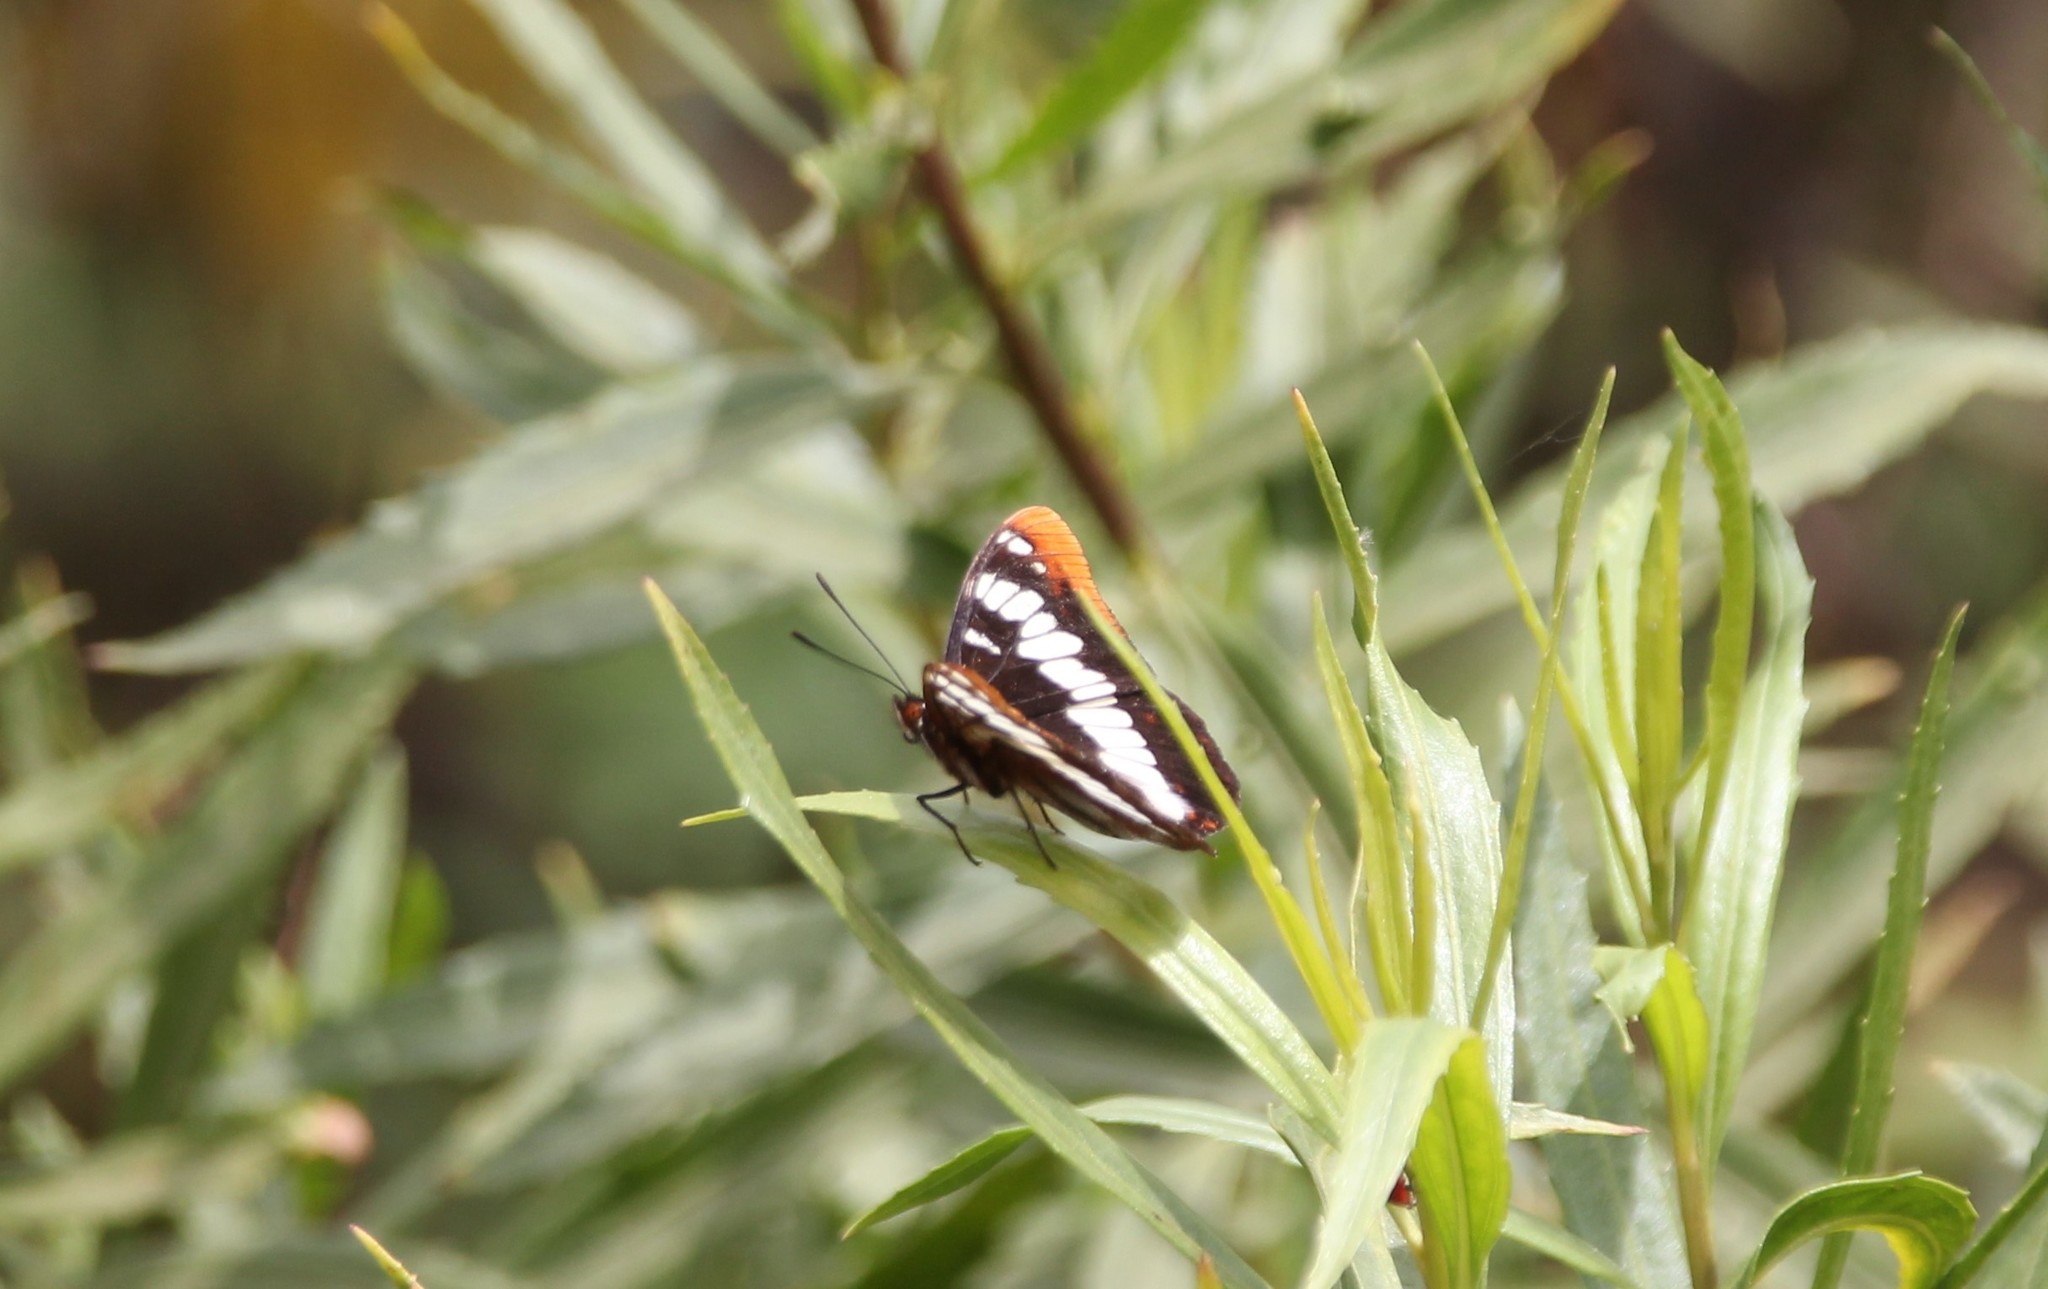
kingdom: Animalia
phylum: Arthropoda
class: Insecta
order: Lepidoptera
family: Nymphalidae
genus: Limenitis
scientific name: Limenitis lorquini
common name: Lorquin's admiral
